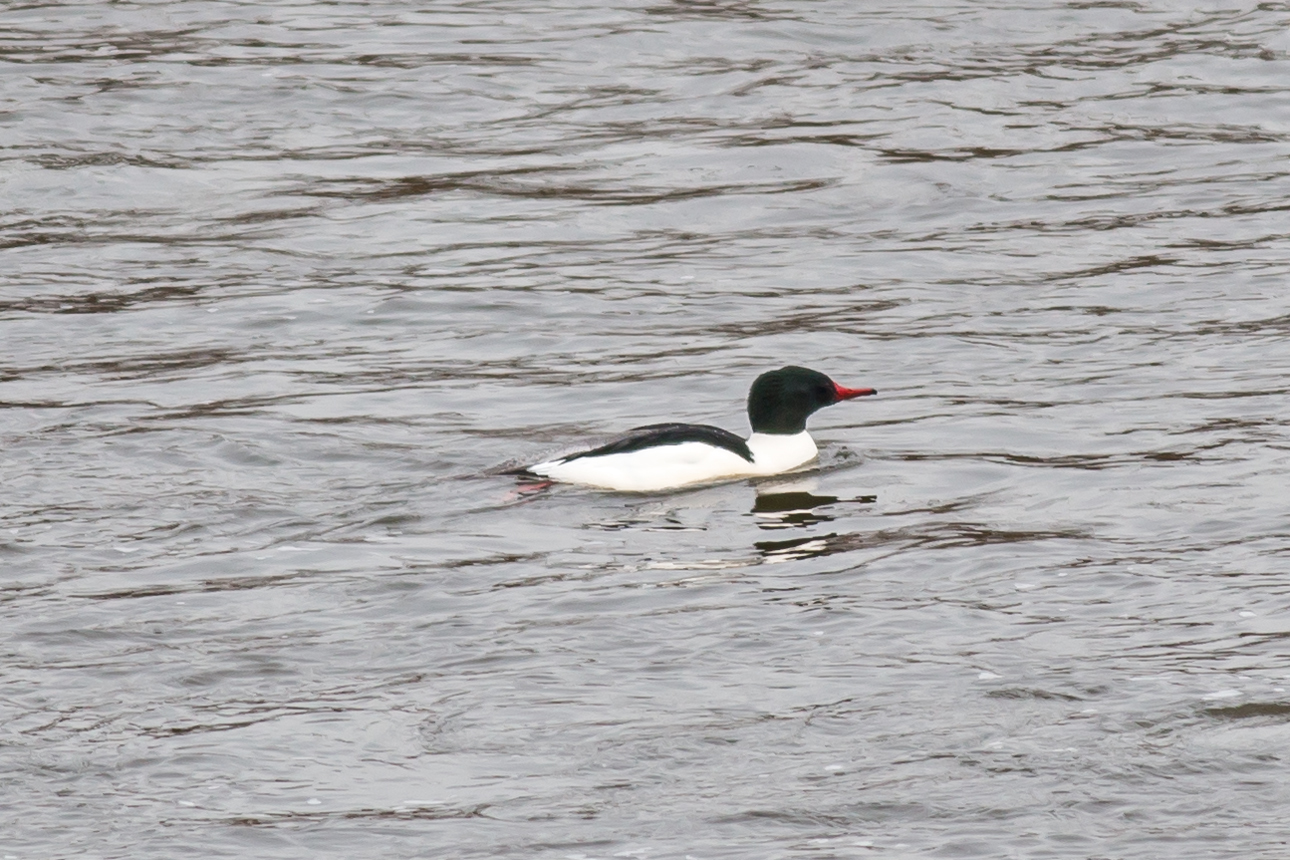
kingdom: Animalia
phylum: Chordata
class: Aves
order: Anseriformes
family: Anatidae
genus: Mergus
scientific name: Mergus merganser
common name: Common merganser
